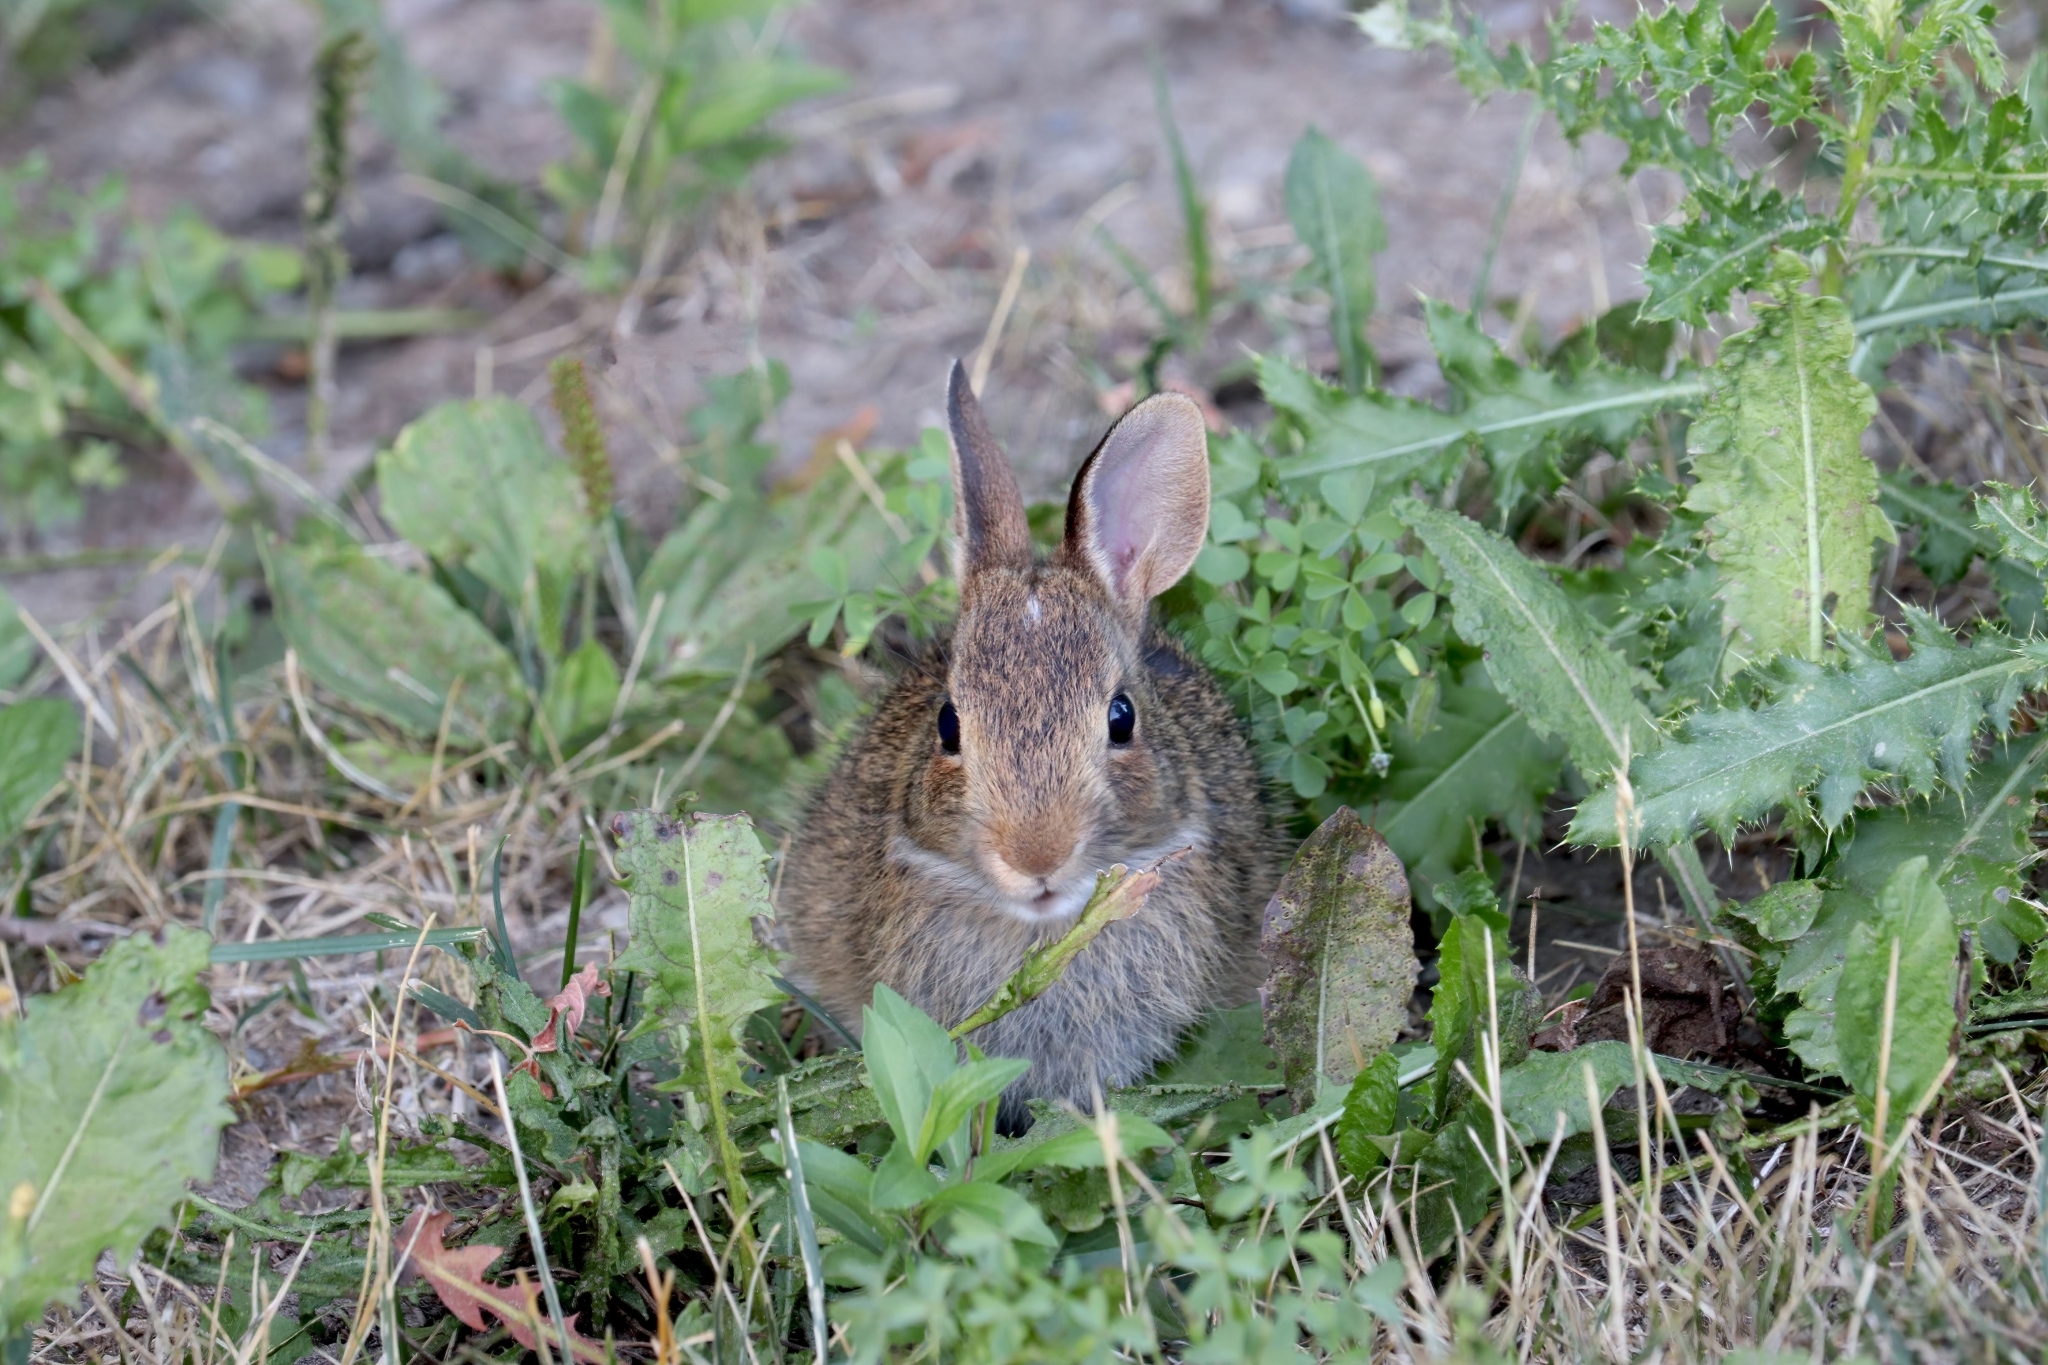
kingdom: Animalia
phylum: Chordata
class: Mammalia
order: Lagomorpha
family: Leporidae
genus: Sylvilagus
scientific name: Sylvilagus floridanus
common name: Eastern cottontail
